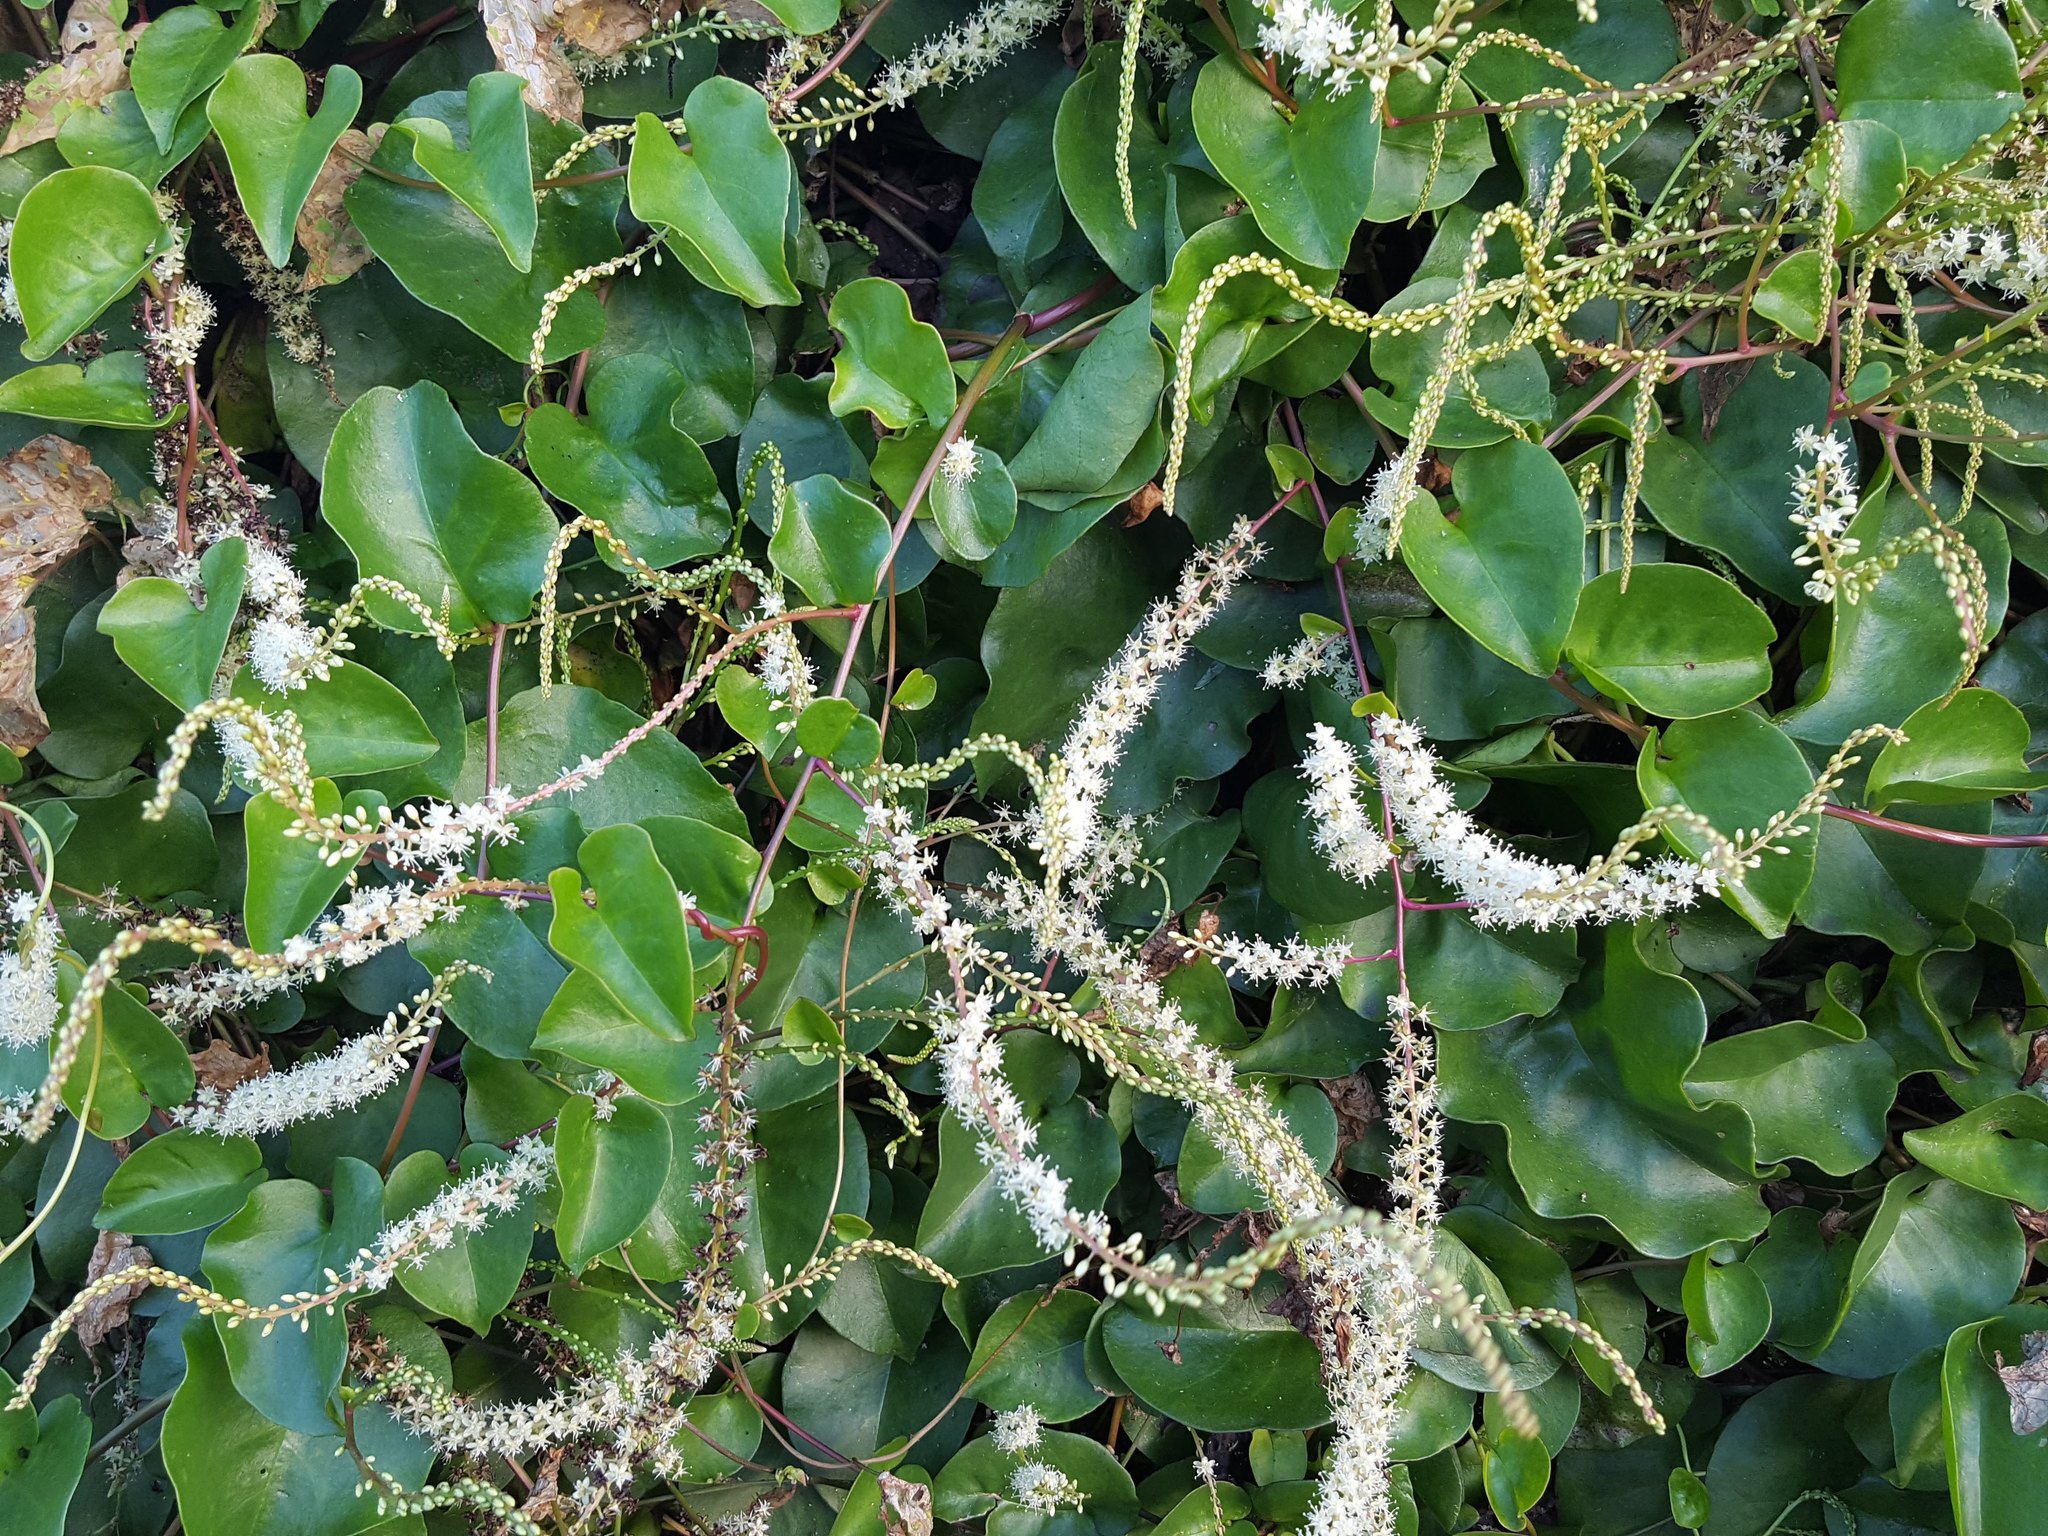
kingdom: Plantae
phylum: Tracheophyta
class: Magnoliopsida
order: Caryophyllales
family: Basellaceae
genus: Anredera
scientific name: Anredera cordifolia
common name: Heartleaf madeiravine
